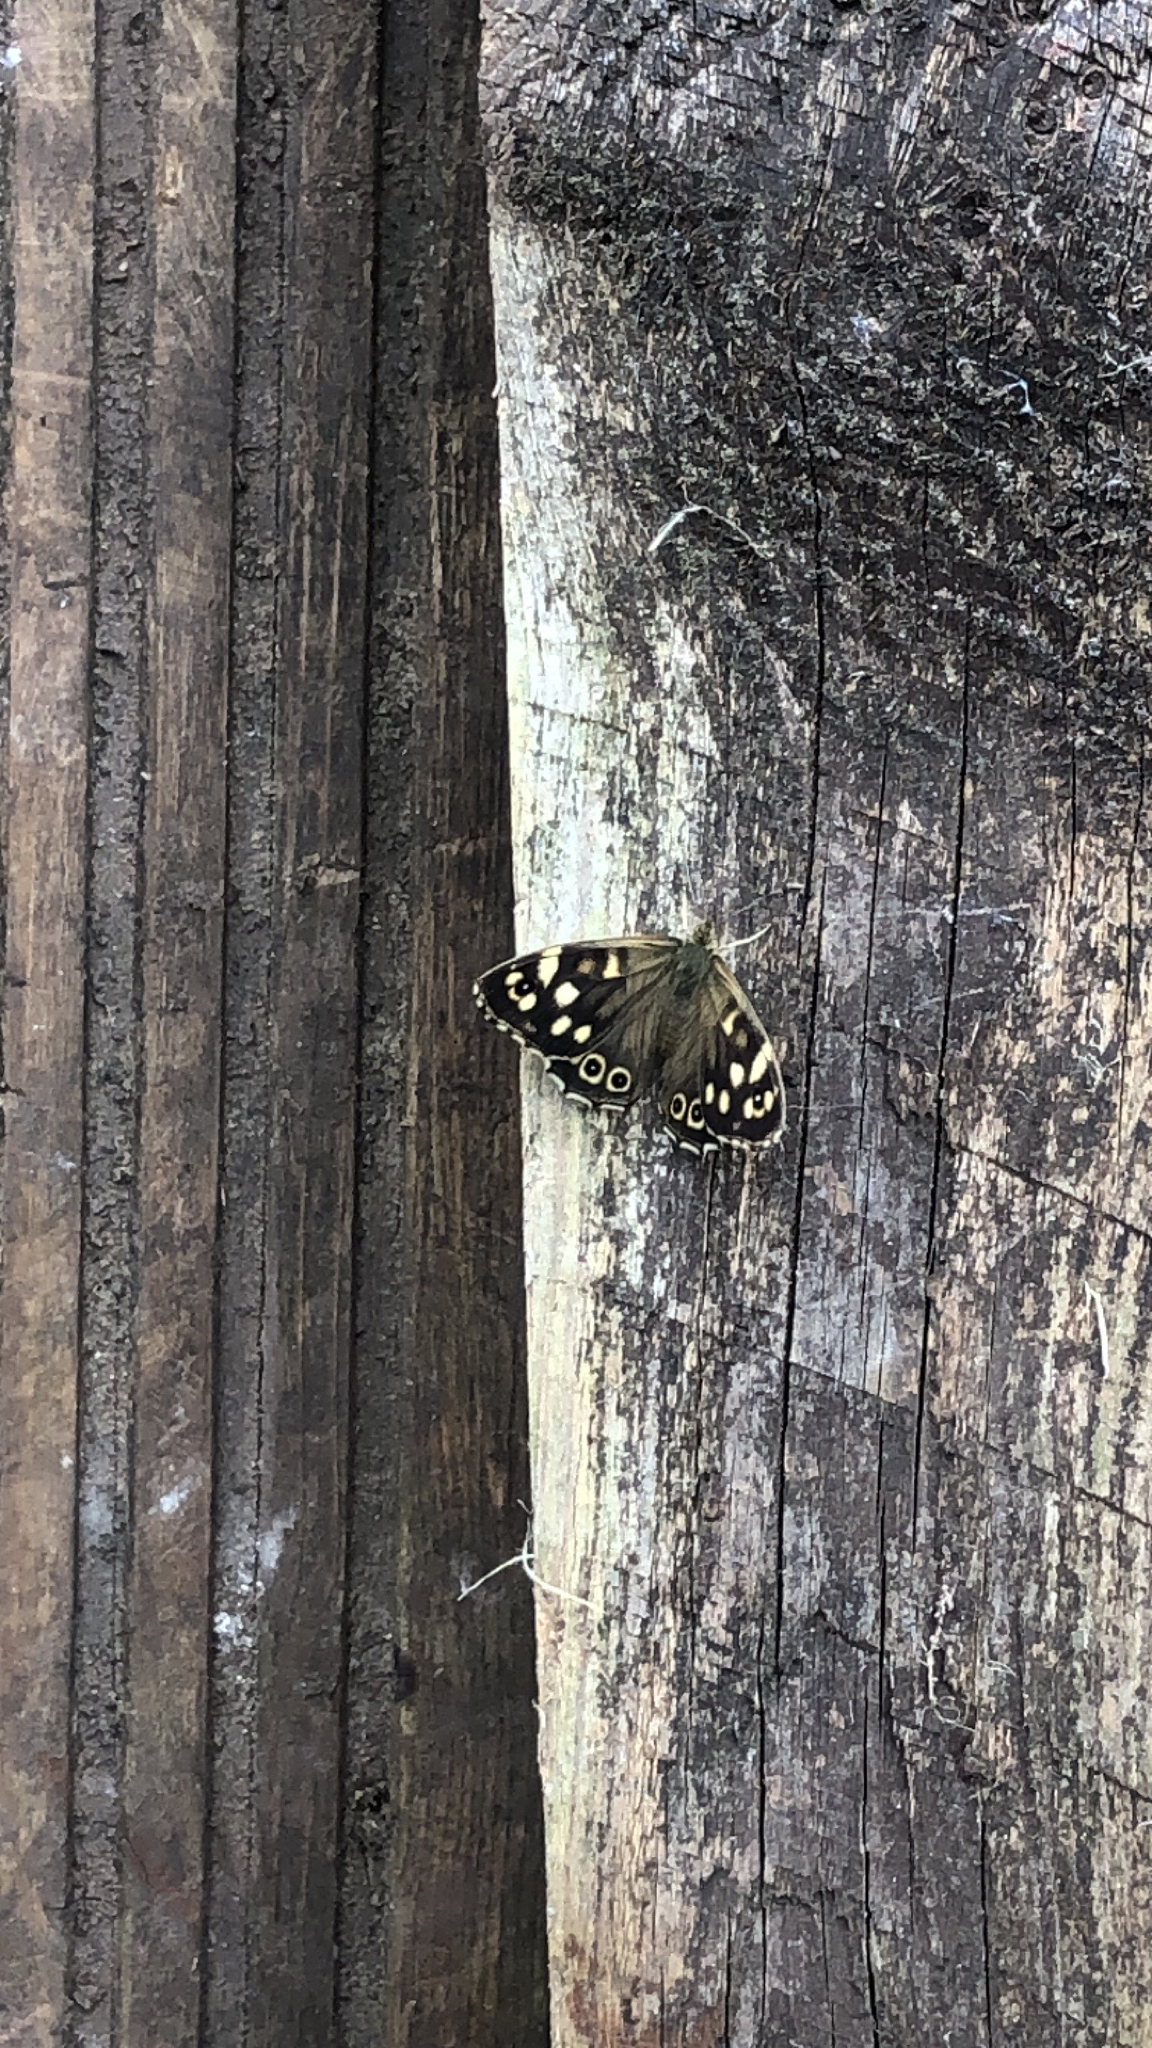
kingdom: Animalia
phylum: Arthropoda
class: Insecta
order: Lepidoptera
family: Nymphalidae
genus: Pararge
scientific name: Pararge aegeria
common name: Speckled wood
